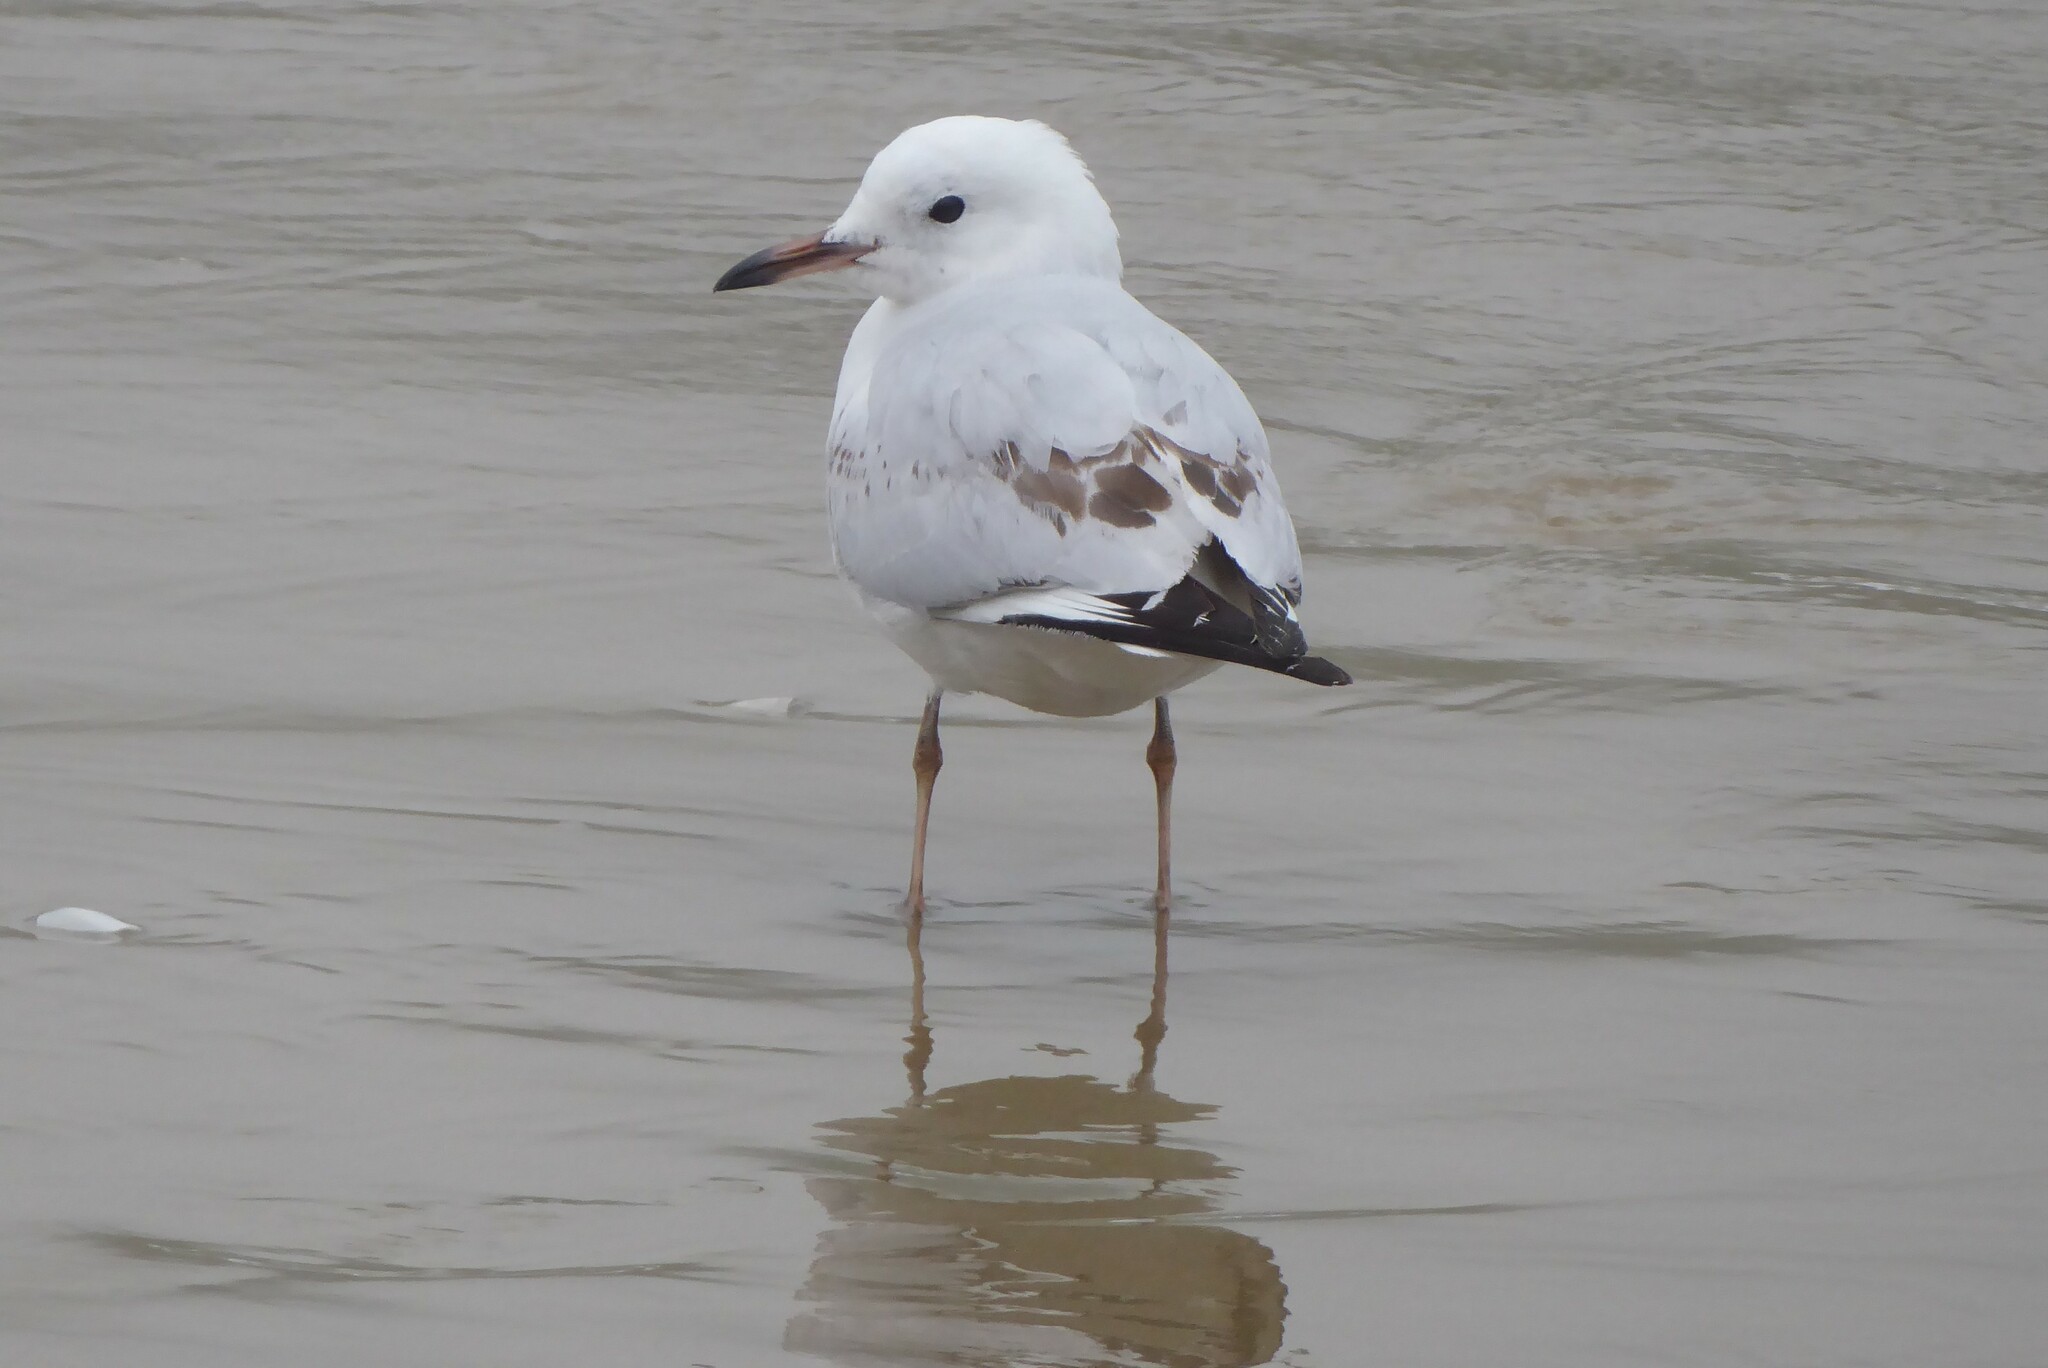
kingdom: Animalia
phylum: Chordata
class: Aves
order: Charadriiformes
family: Laridae
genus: Chroicocephalus
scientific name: Chroicocephalus bulleri
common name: Black-billed gull
